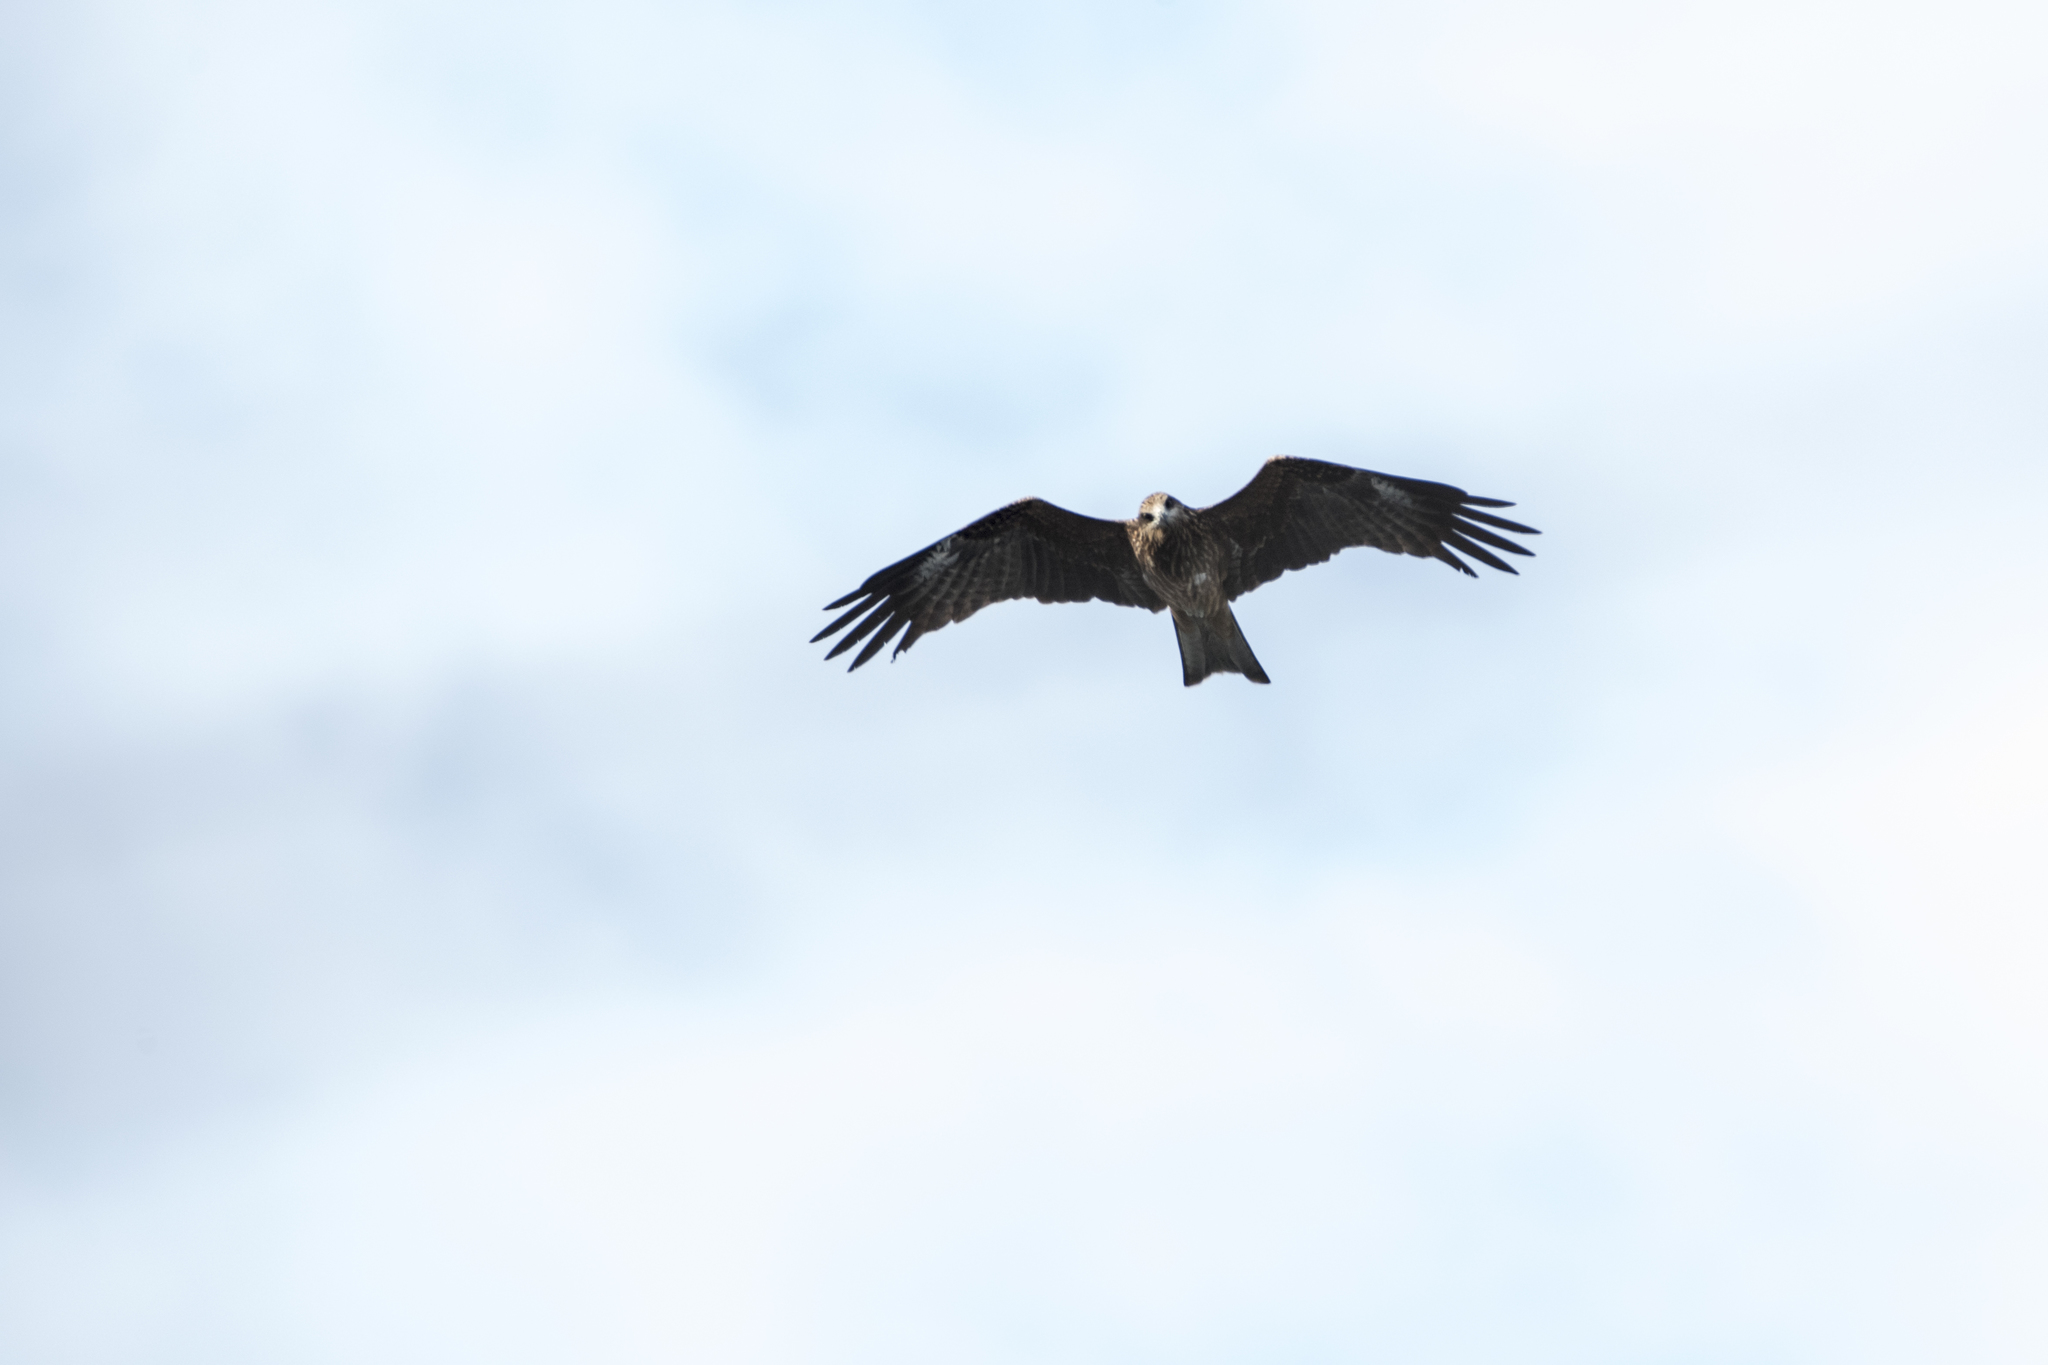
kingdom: Animalia
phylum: Chordata
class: Aves
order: Accipitriformes
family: Accipitridae
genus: Milvus
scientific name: Milvus migrans
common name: Black kite
